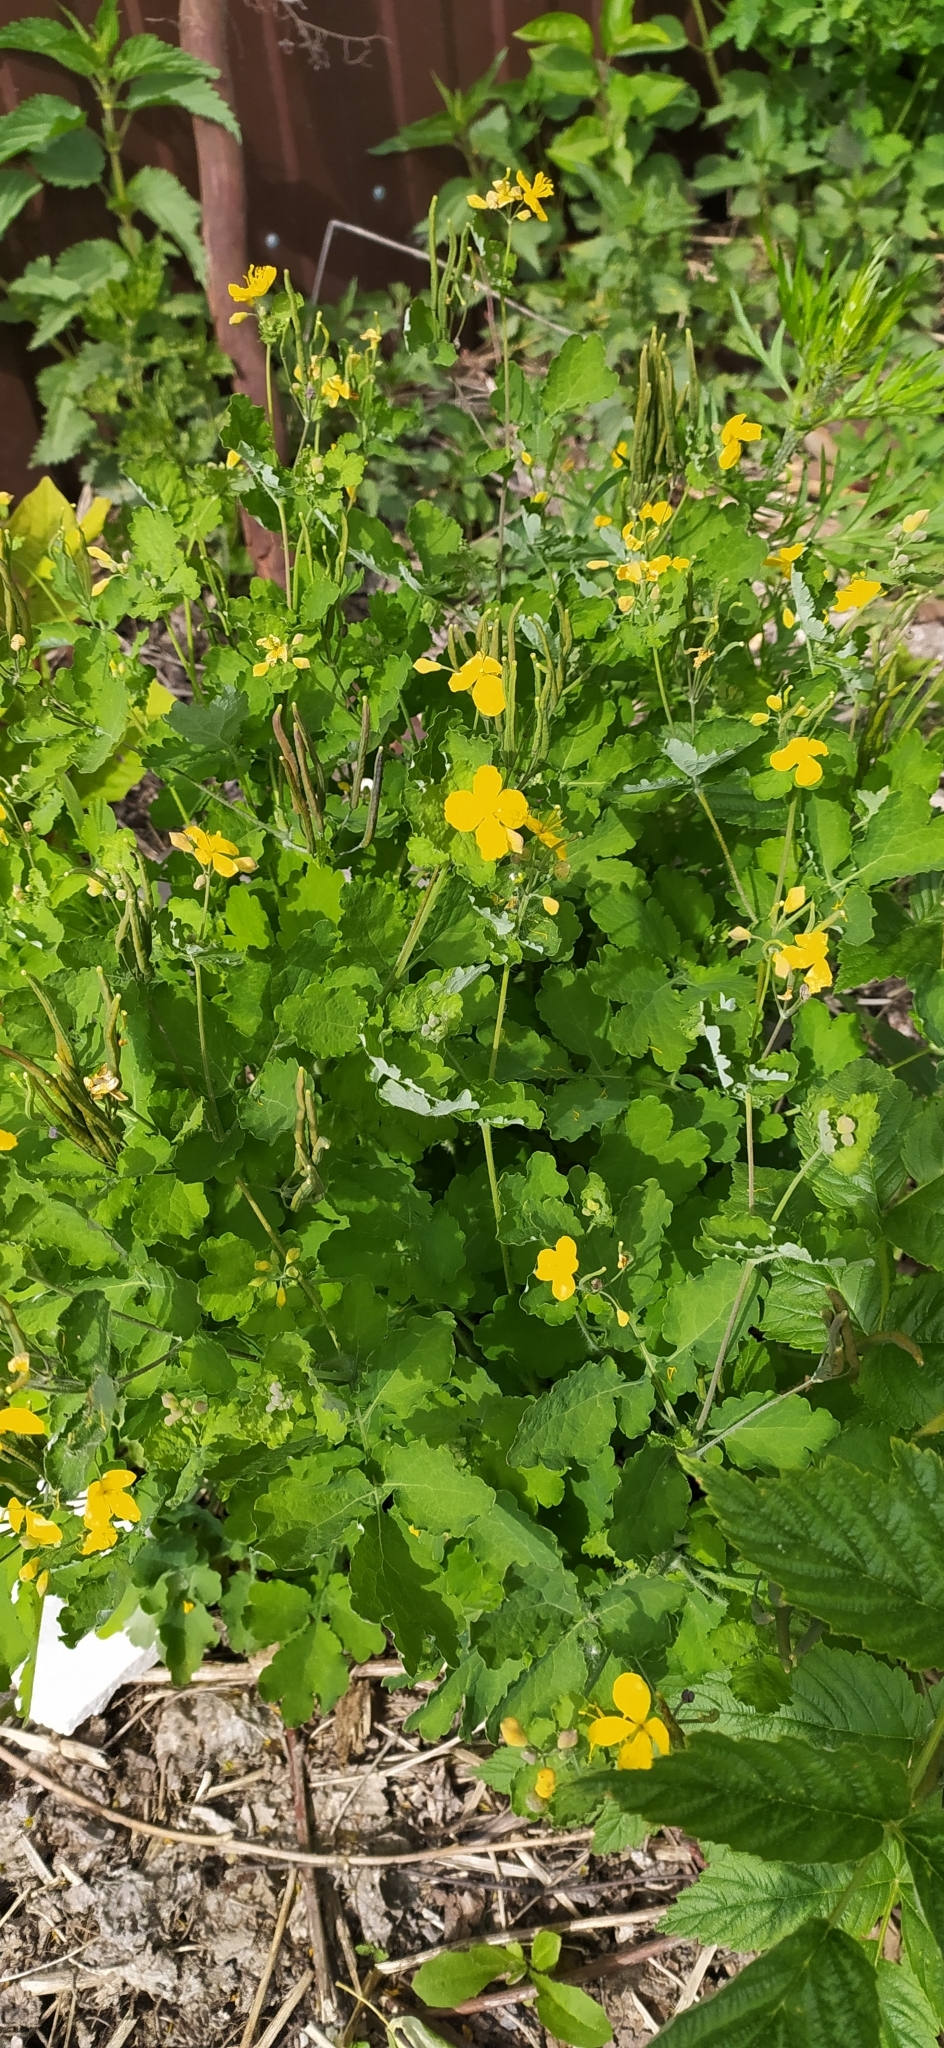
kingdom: Plantae
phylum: Tracheophyta
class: Magnoliopsida
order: Ranunculales
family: Papaveraceae
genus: Chelidonium
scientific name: Chelidonium majus
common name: Greater celandine
